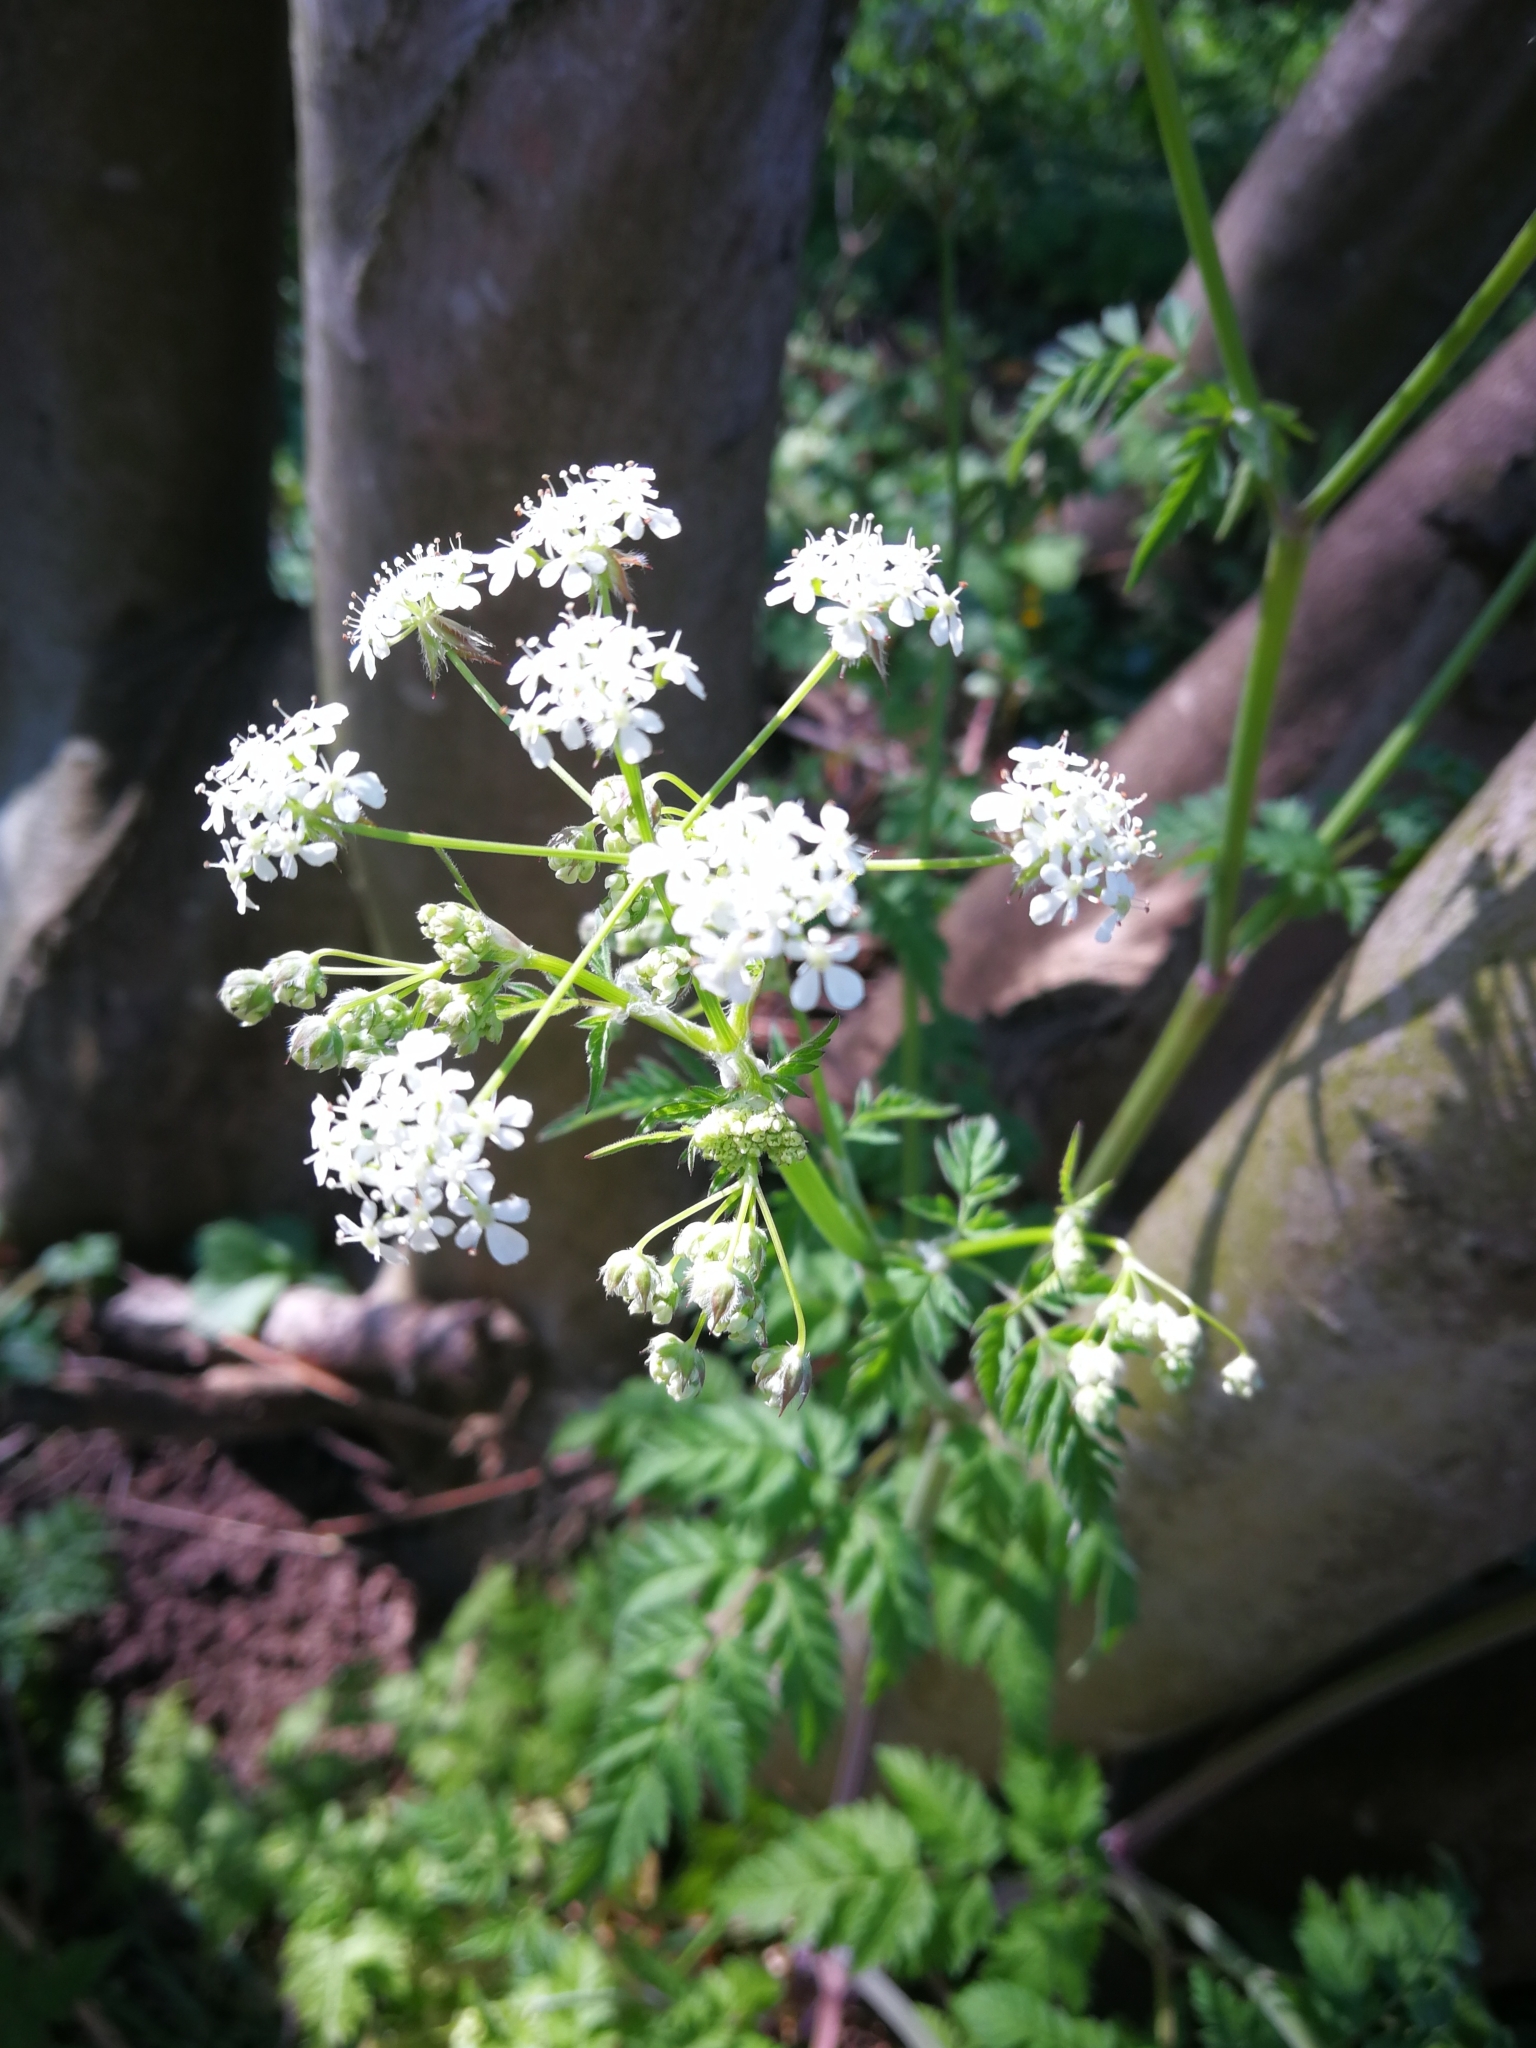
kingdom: Plantae
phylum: Tracheophyta
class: Magnoliopsida
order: Apiales
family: Apiaceae
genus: Anthriscus
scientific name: Anthriscus sylvestris
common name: Cow parsley
